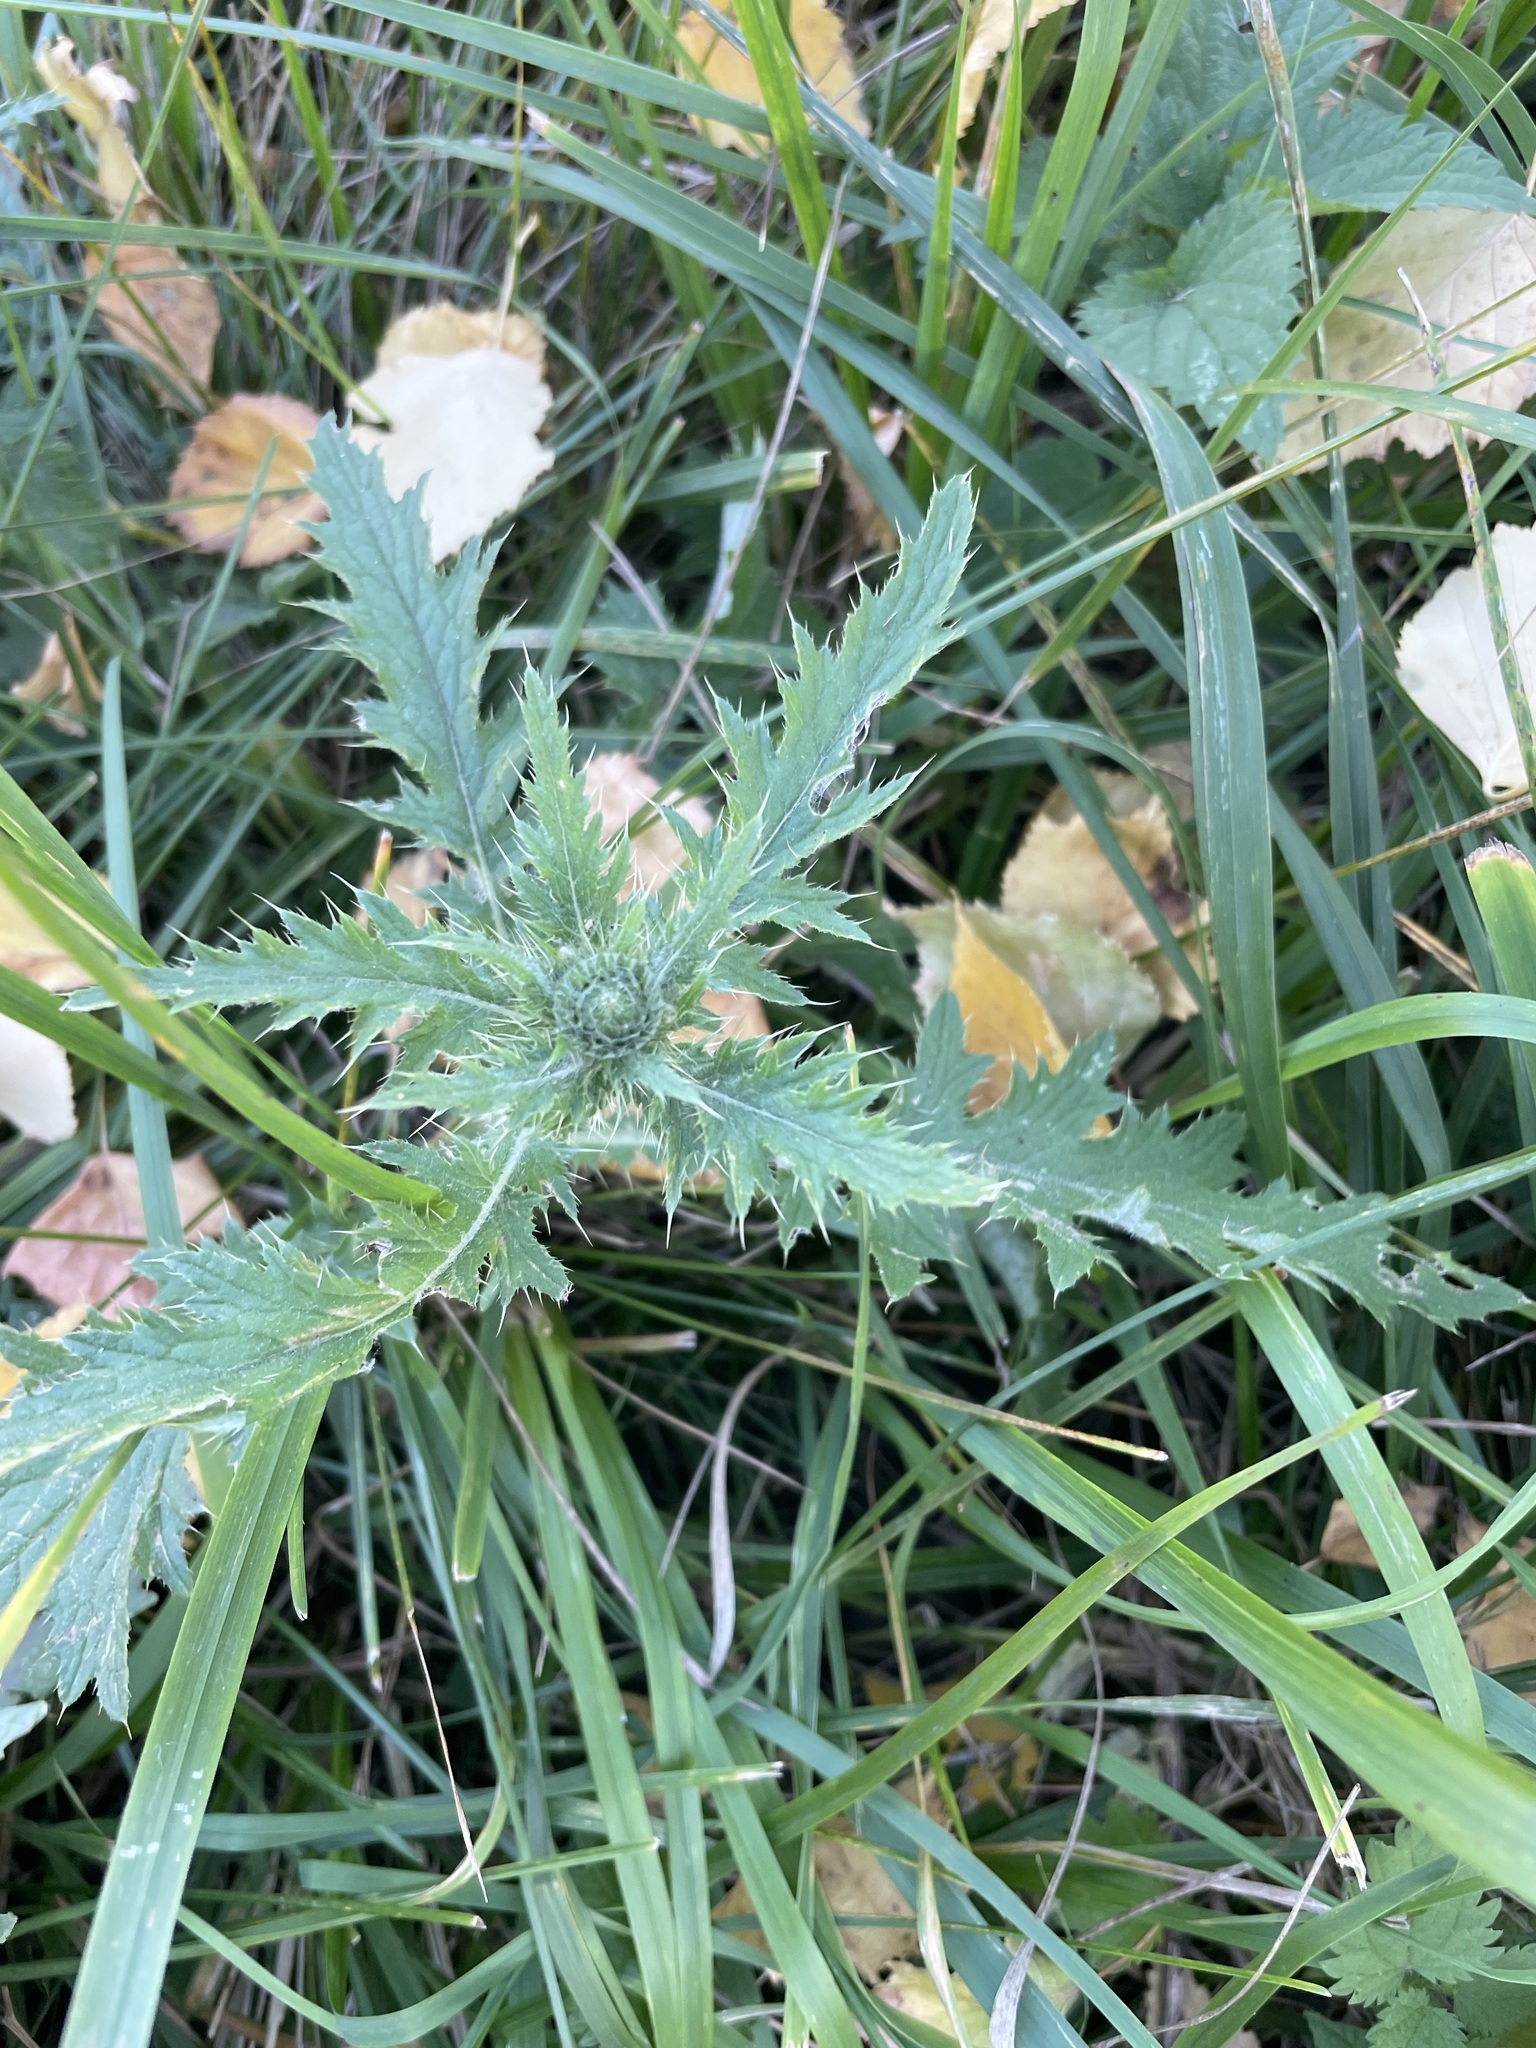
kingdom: Plantae
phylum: Tracheophyta
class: Magnoliopsida
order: Asterales
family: Asteraceae
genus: Carduus
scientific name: Carduus crispus
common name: Welted thistle
